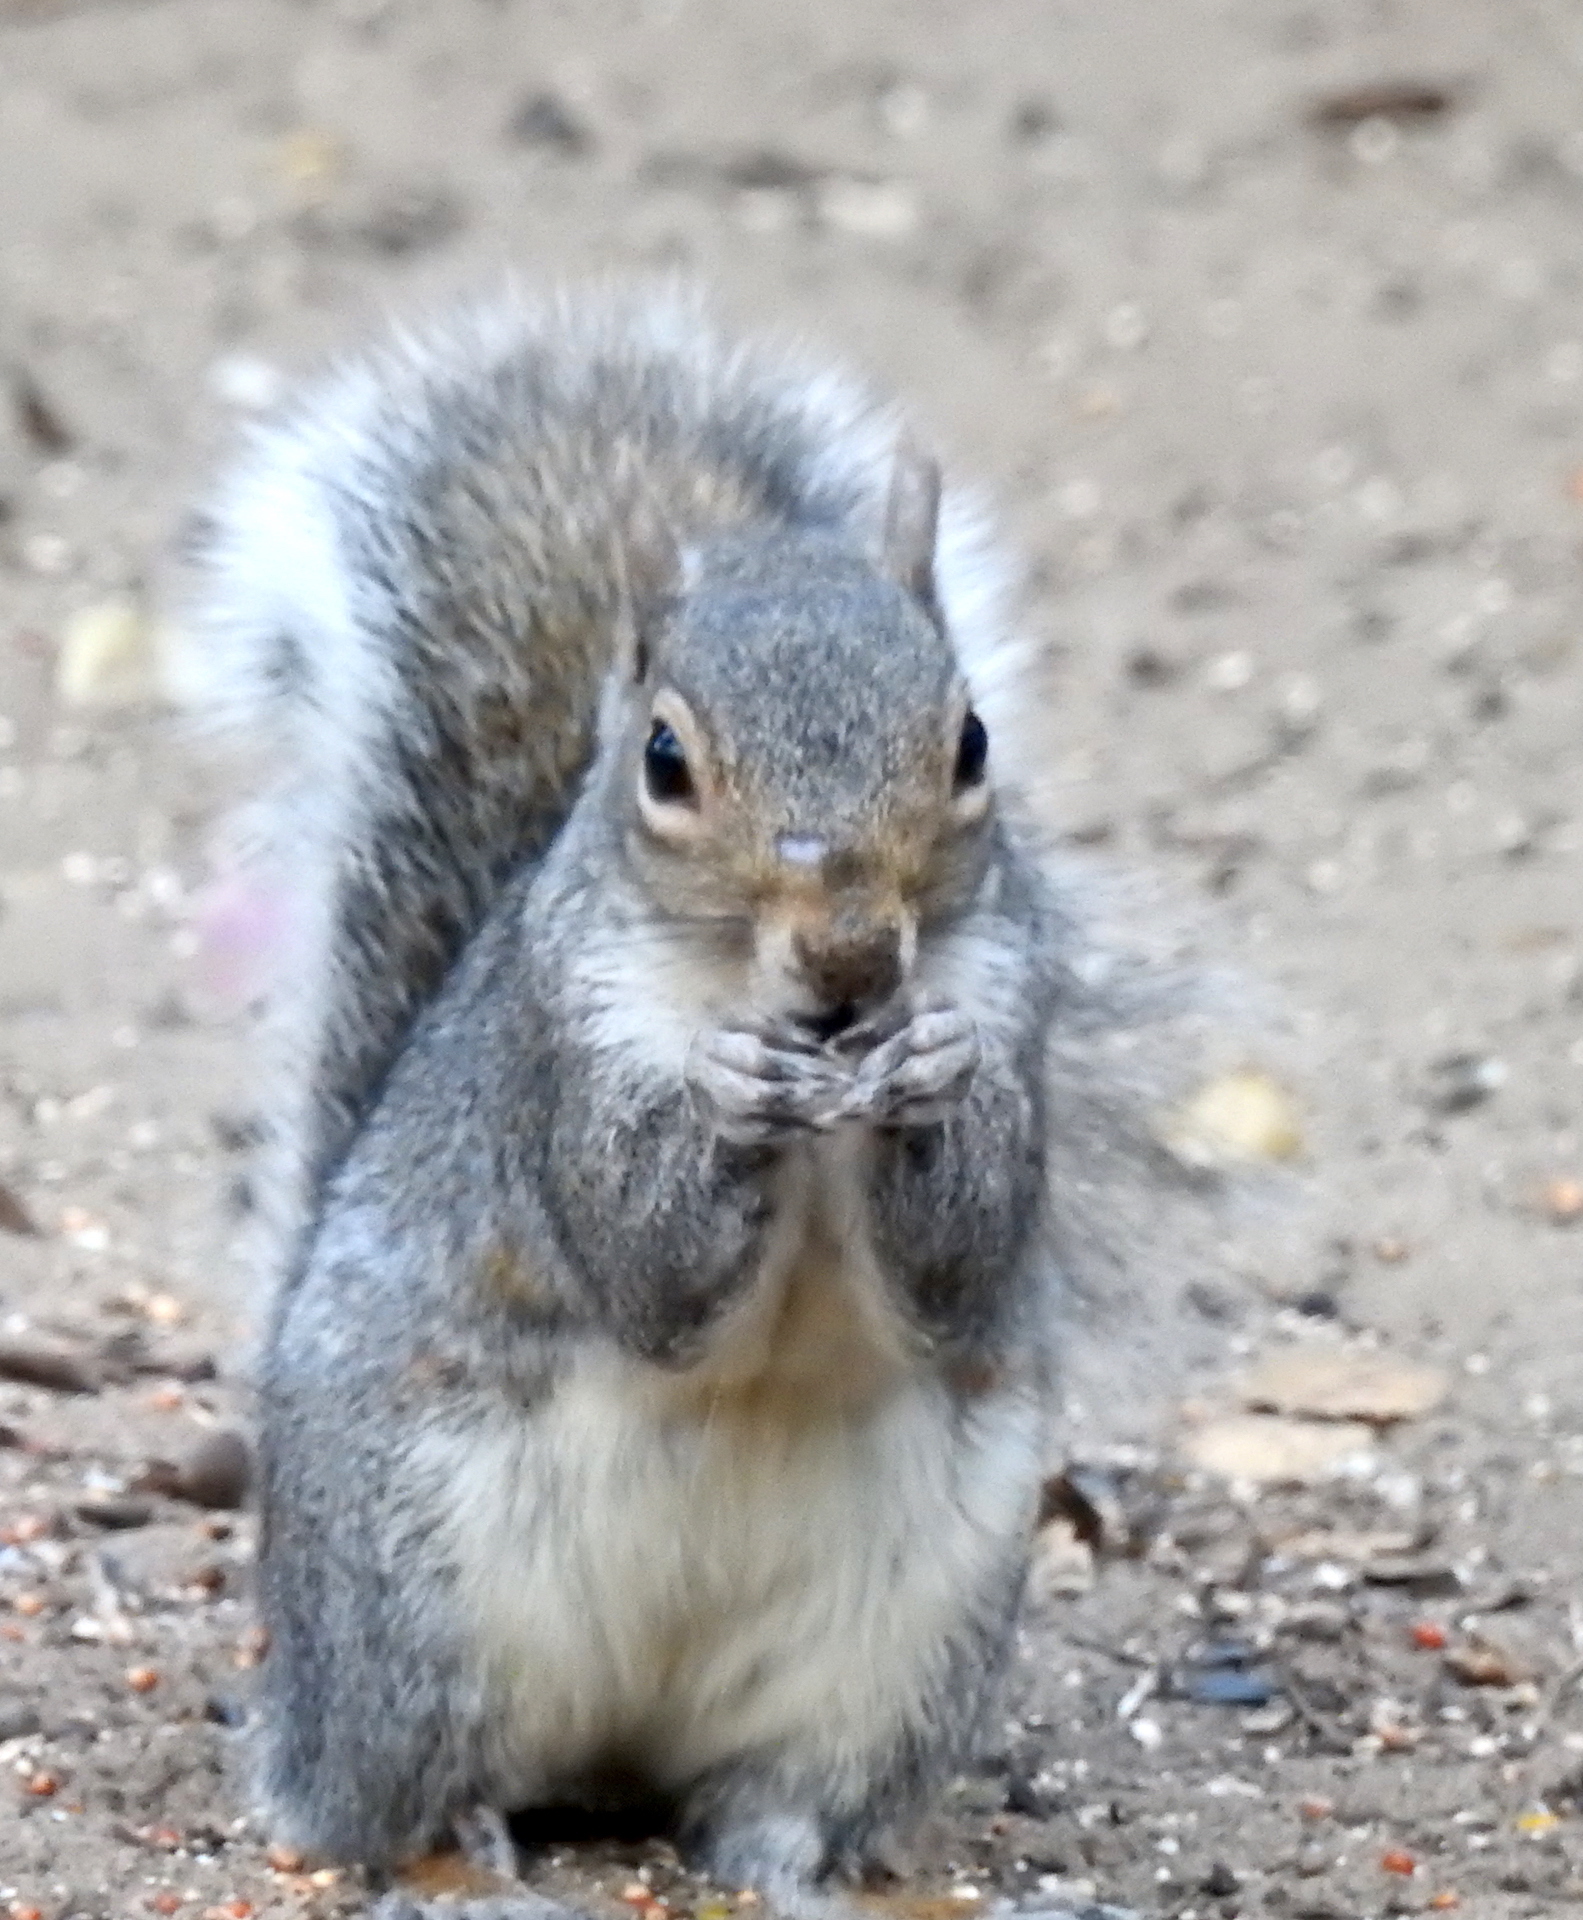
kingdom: Animalia
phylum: Chordata
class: Mammalia
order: Rodentia
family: Sciuridae
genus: Sciurus
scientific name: Sciurus carolinensis
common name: Eastern gray squirrel
